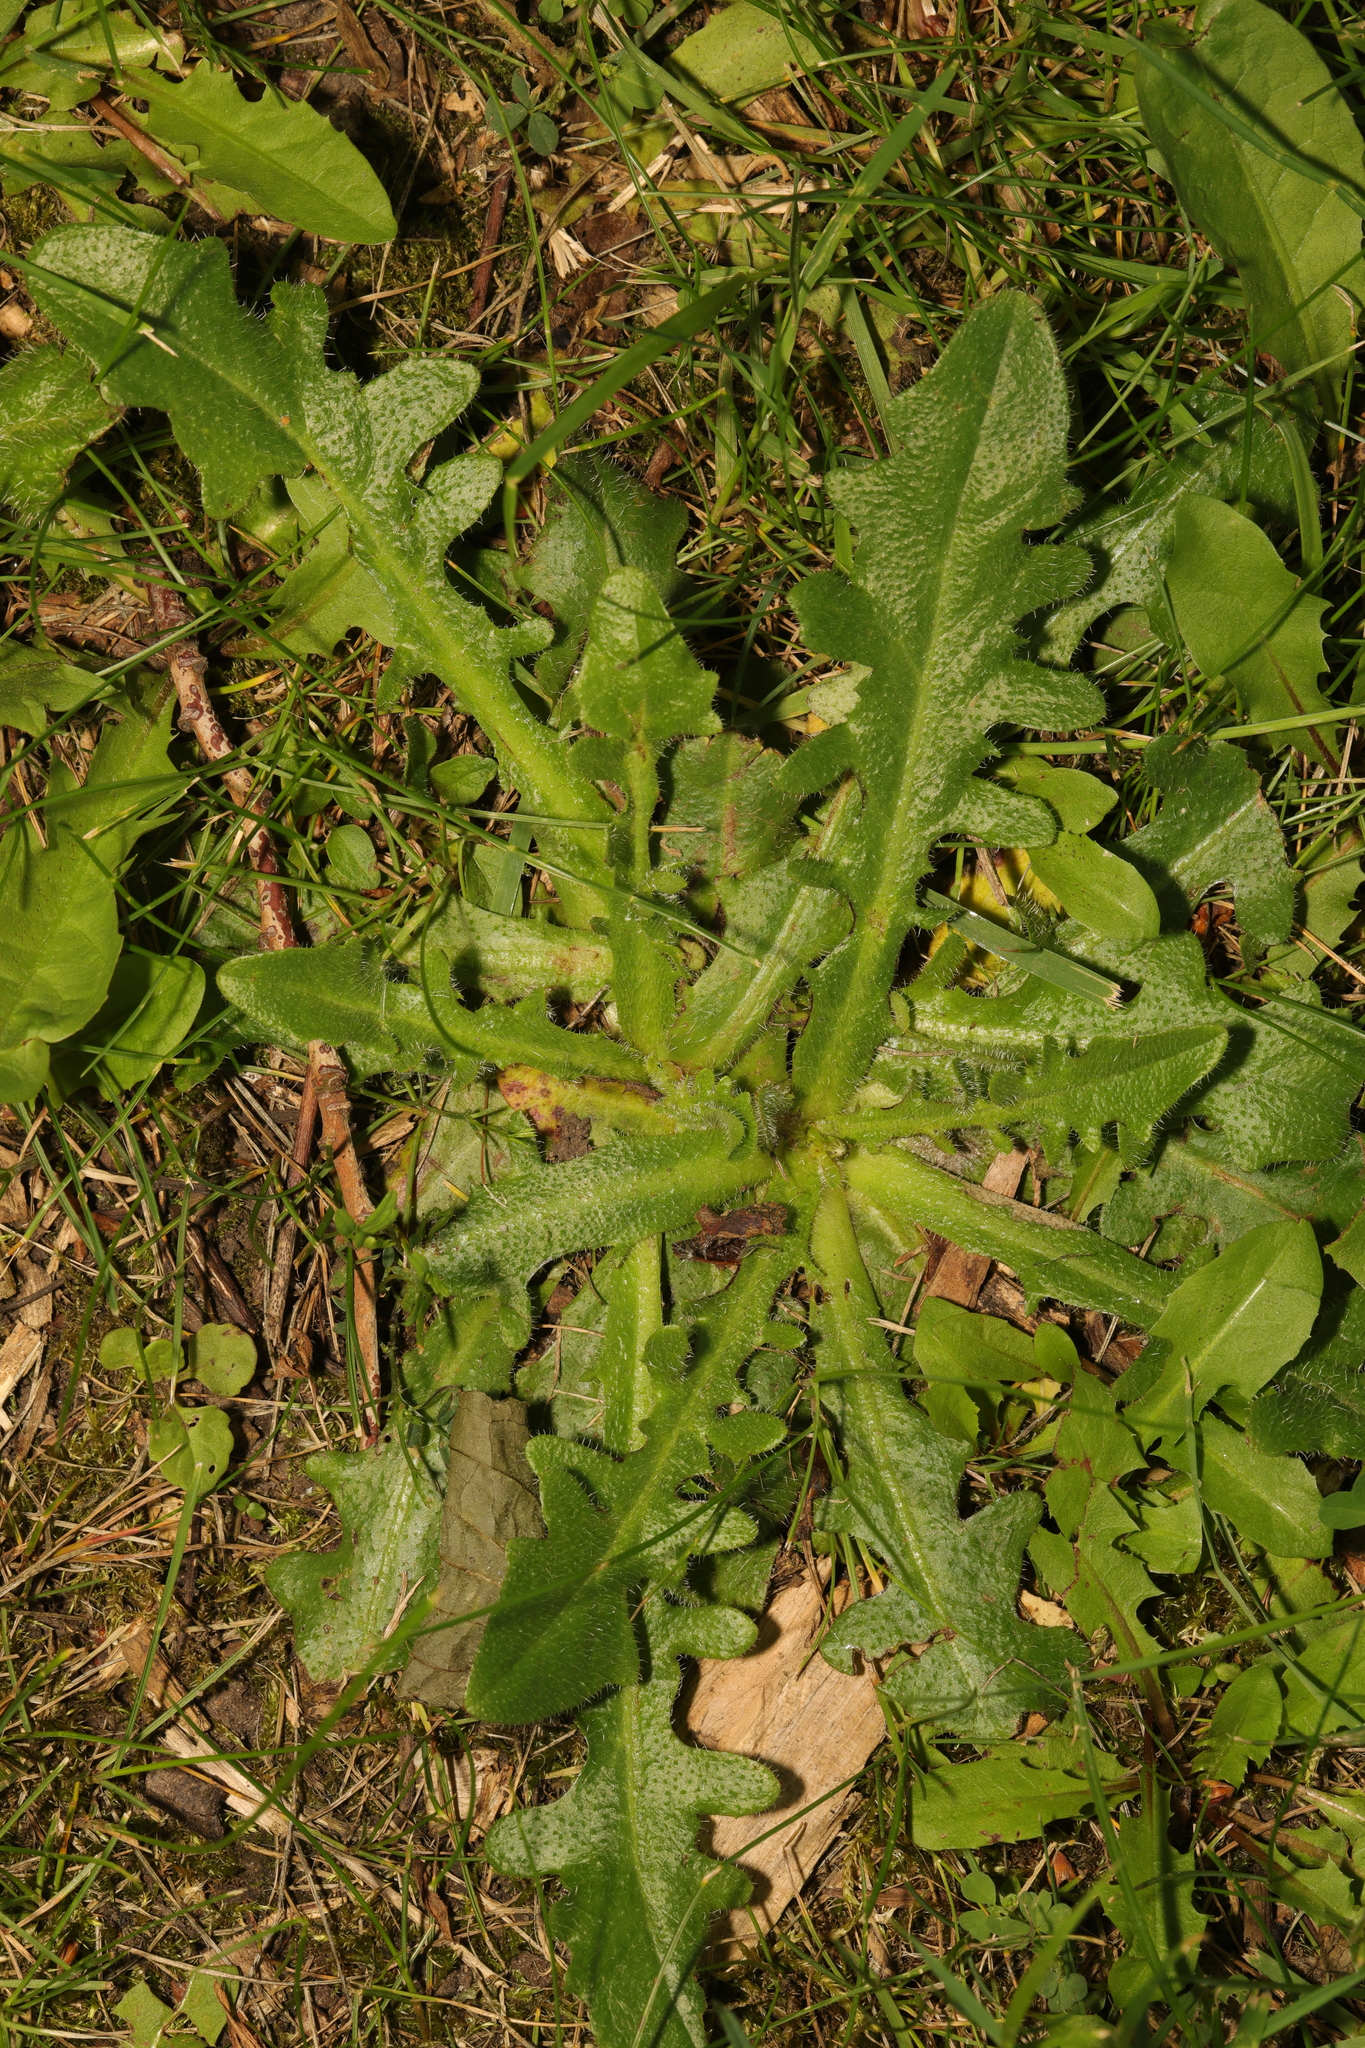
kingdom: Plantae
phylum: Tracheophyta
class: Magnoliopsida
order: Asterales
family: Asteraceae
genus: Hypochaeris
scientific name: Hypochaeris radicata
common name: Flatweed
